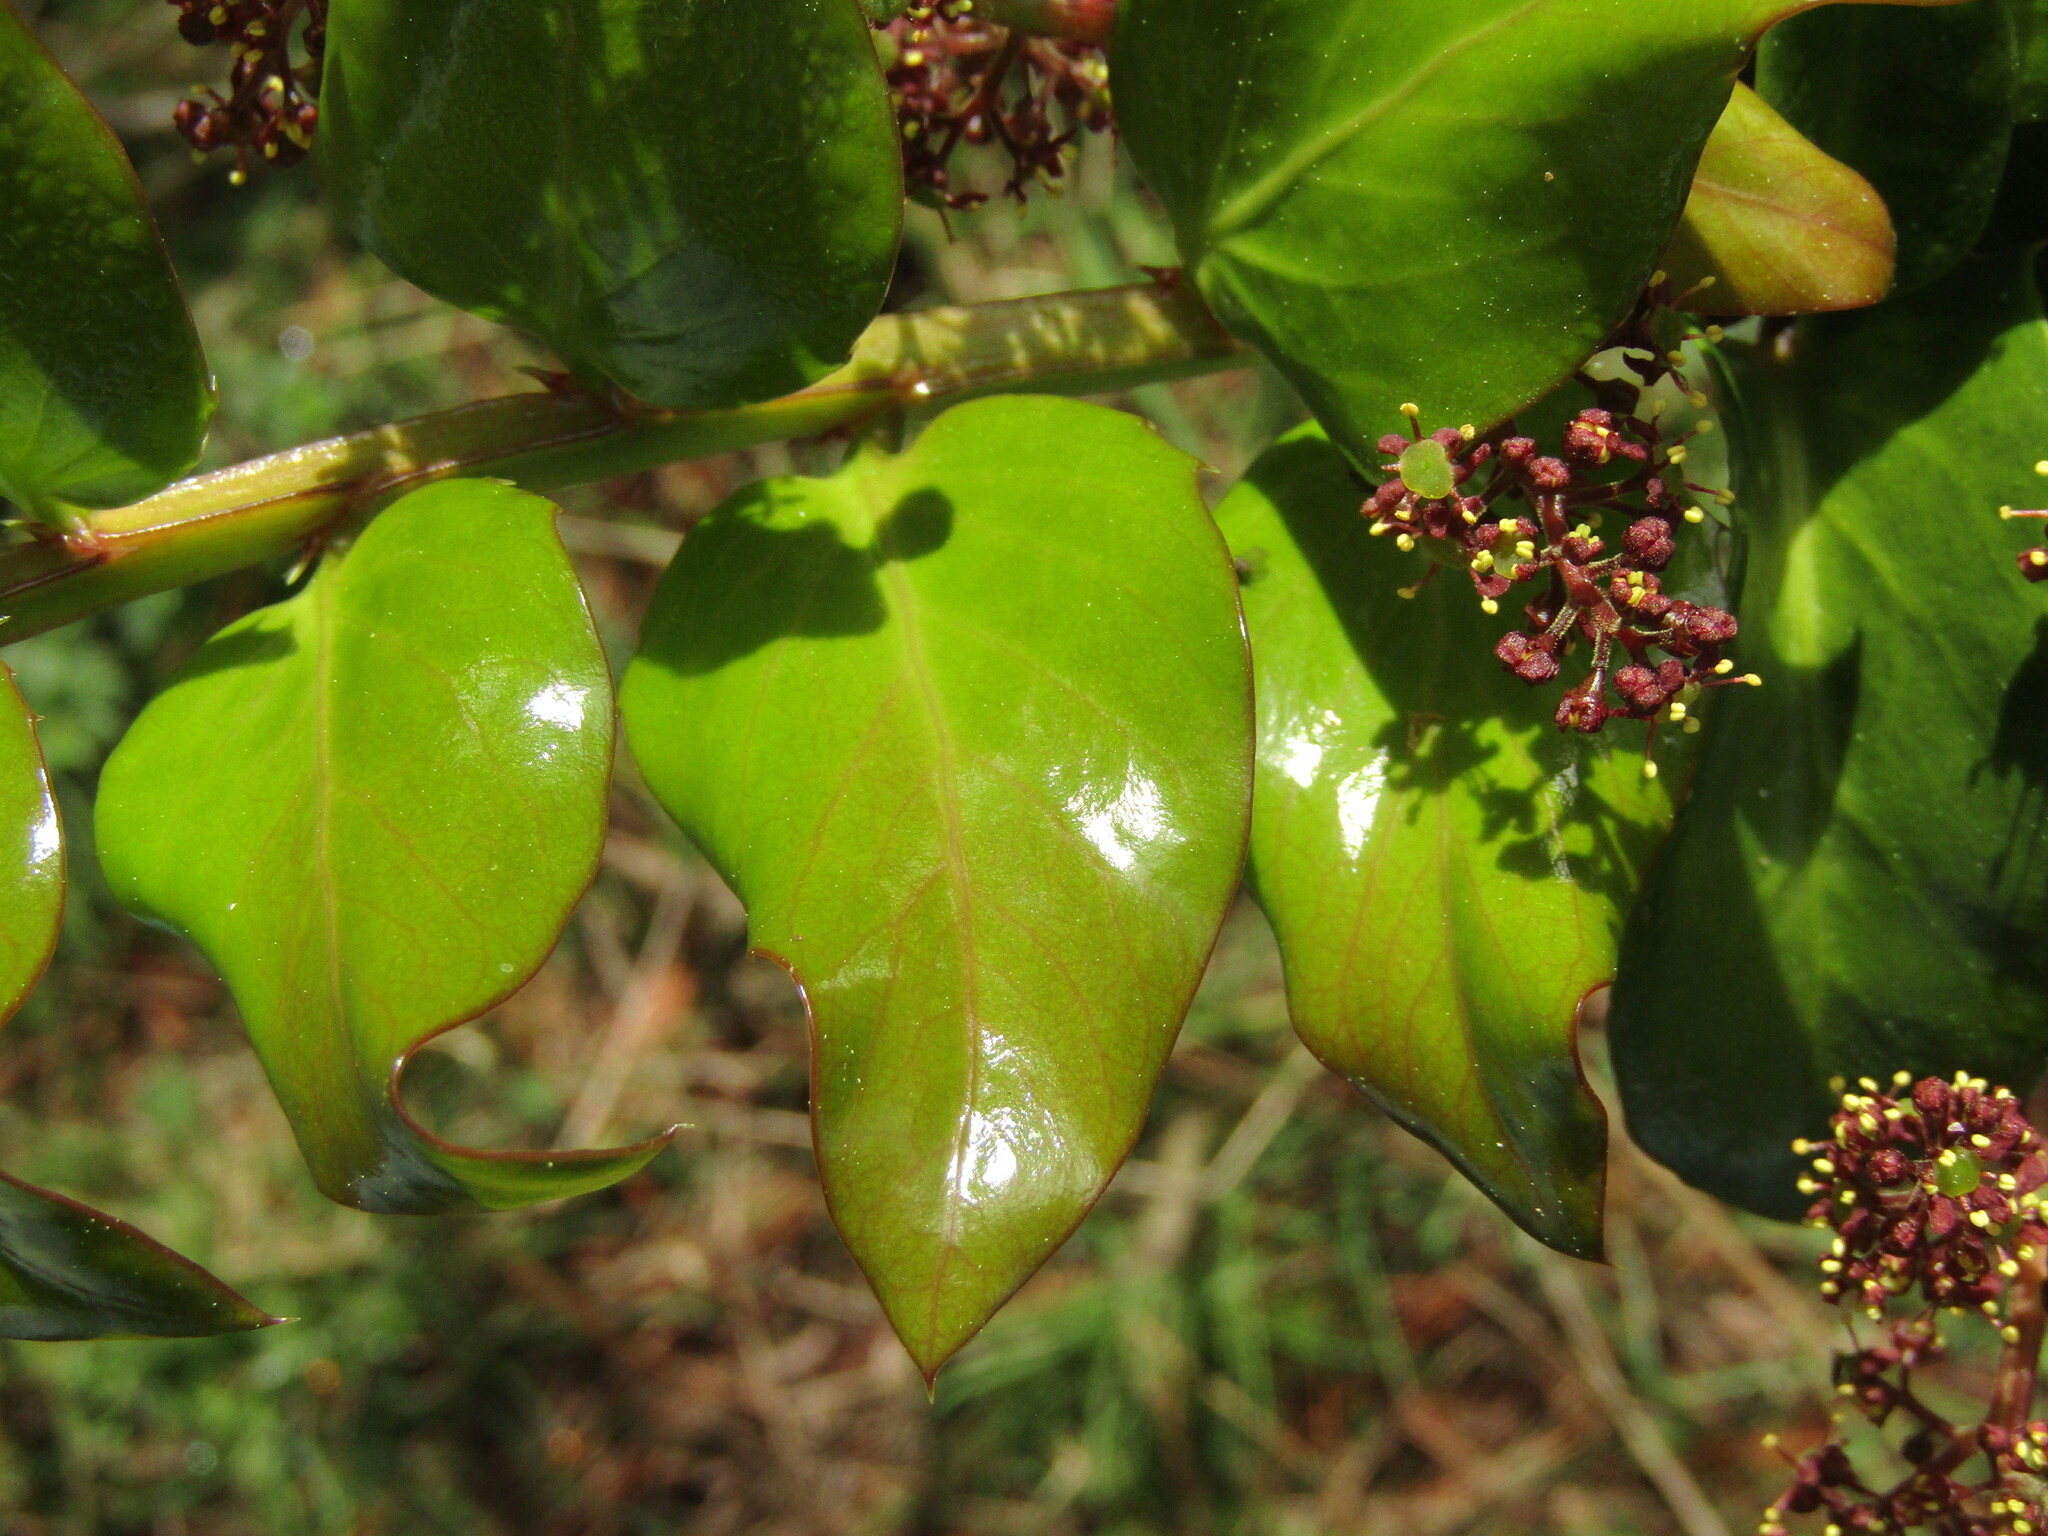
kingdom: Plantae
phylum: Tracheophyta
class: Magnoliopsida
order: Apiales
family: Griseliniaceae
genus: Griselinia
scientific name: Griselinia scandens
